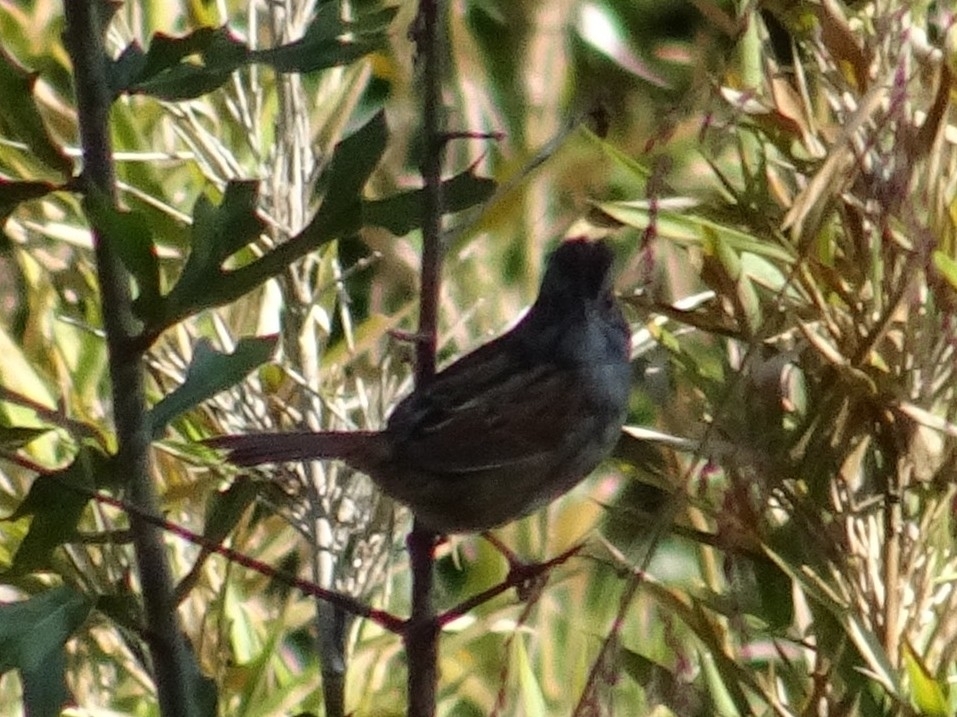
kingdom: Animalia
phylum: Chordata
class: Aves
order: Passeriformes
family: Passerellidae
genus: Melospiza
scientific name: Melospiza georgiana
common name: Swamp sparrow
